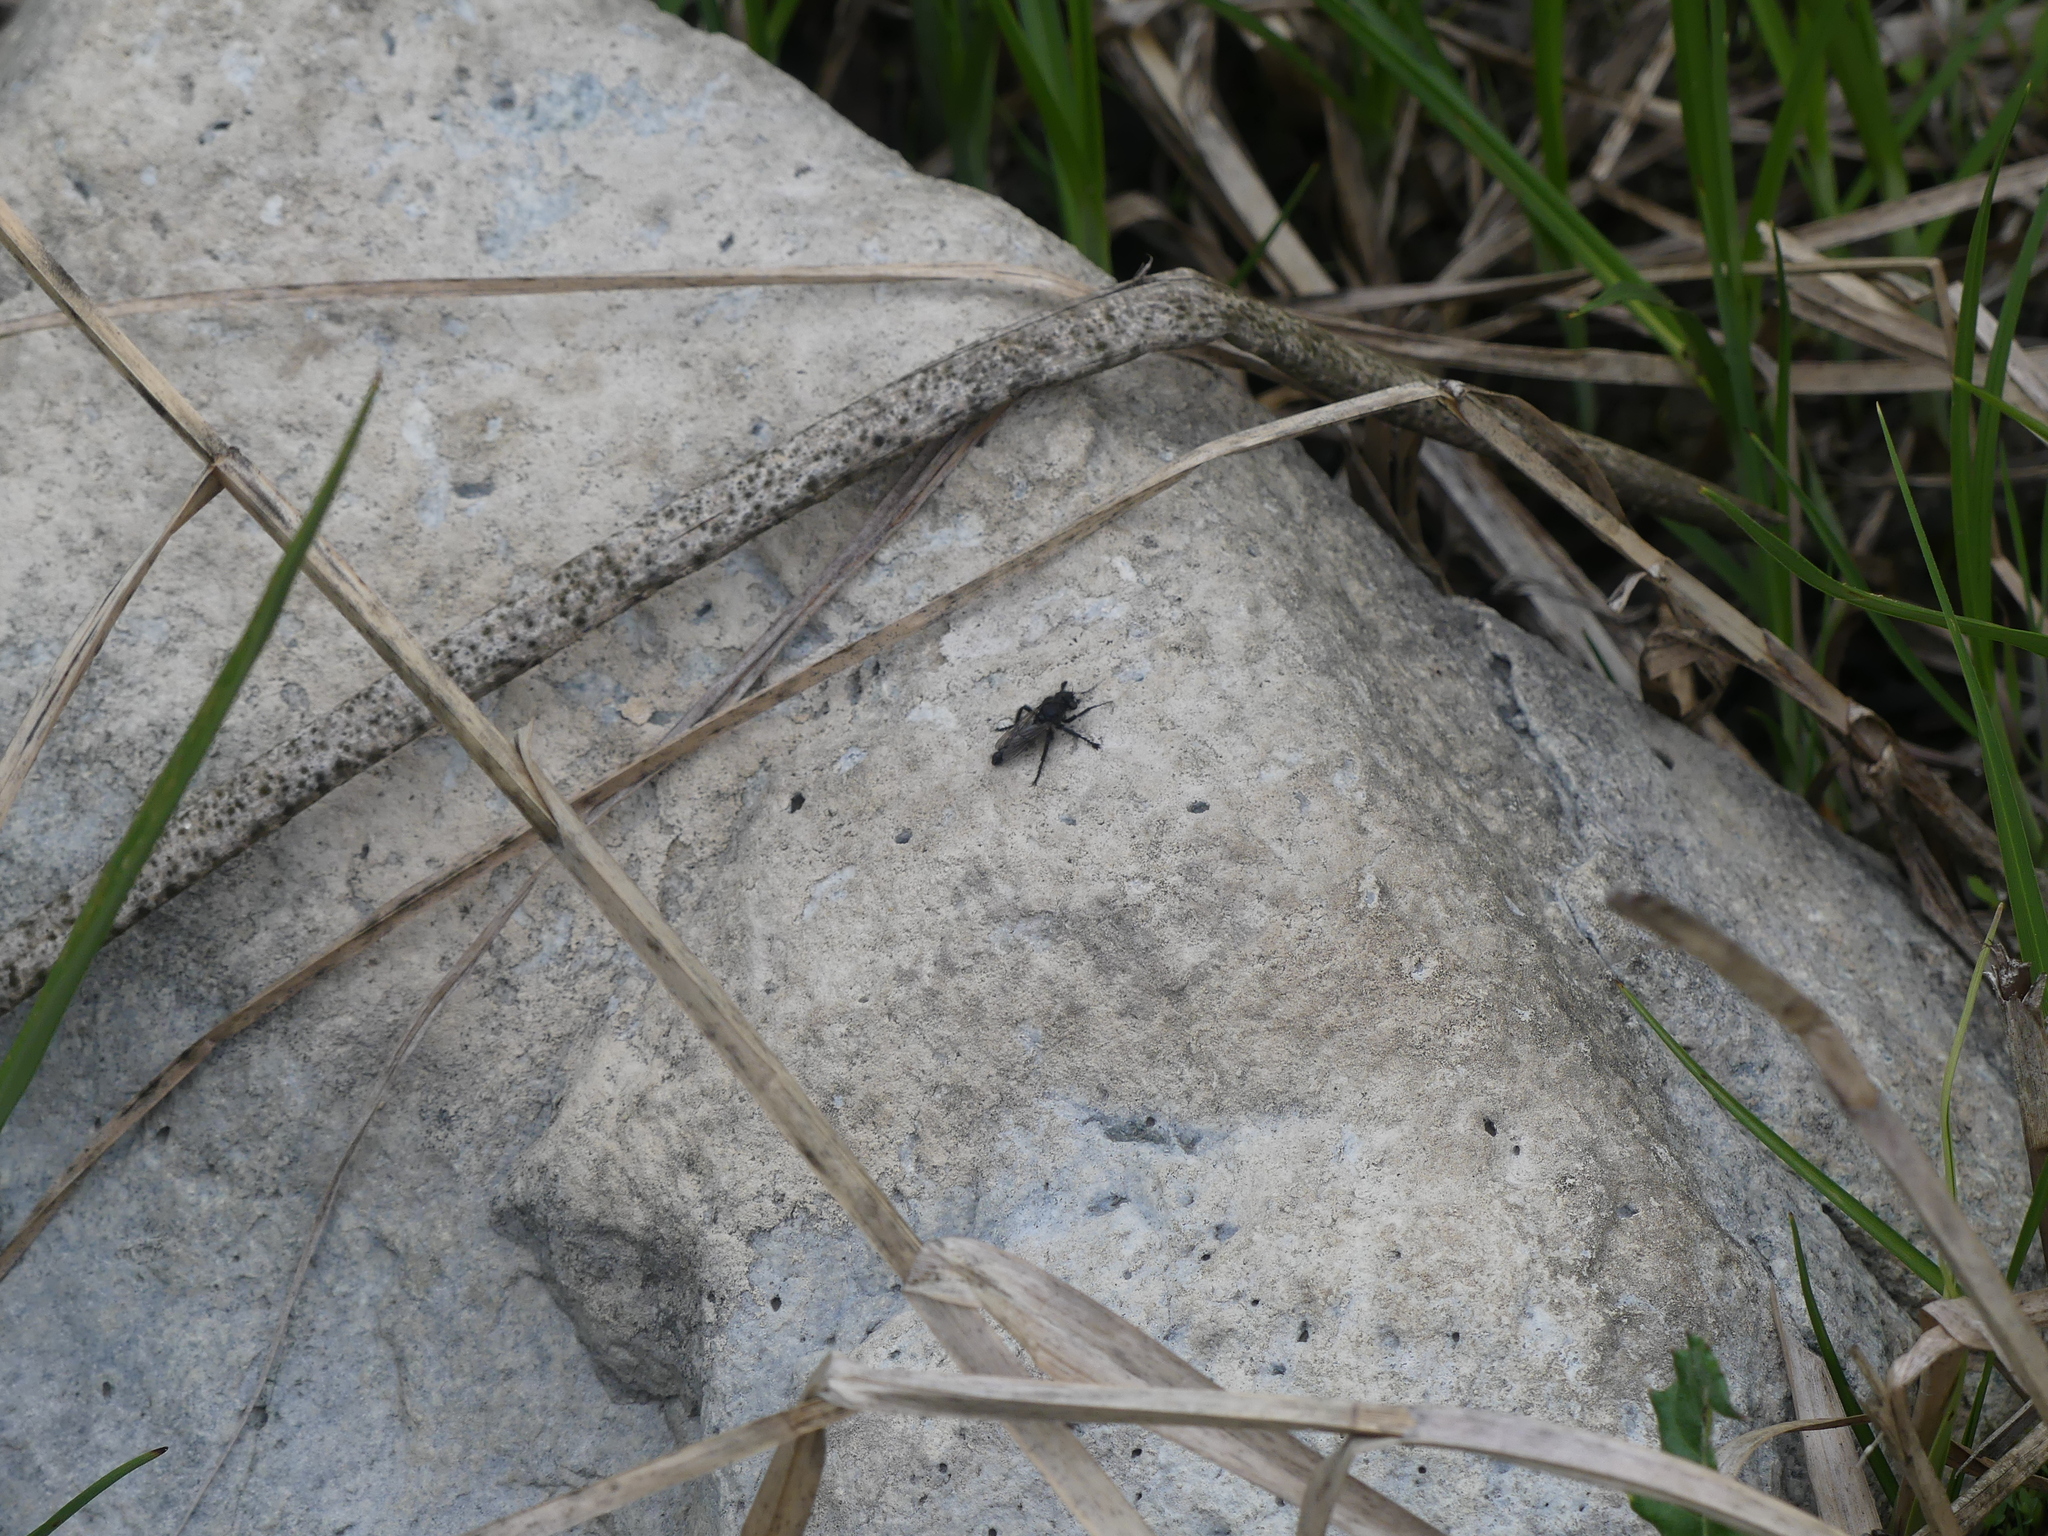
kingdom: Animalia
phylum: Arthropoda
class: Insecta
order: Diptera
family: Asilidae
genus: Cyrtopogon
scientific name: Cyrtopogon willistoni
